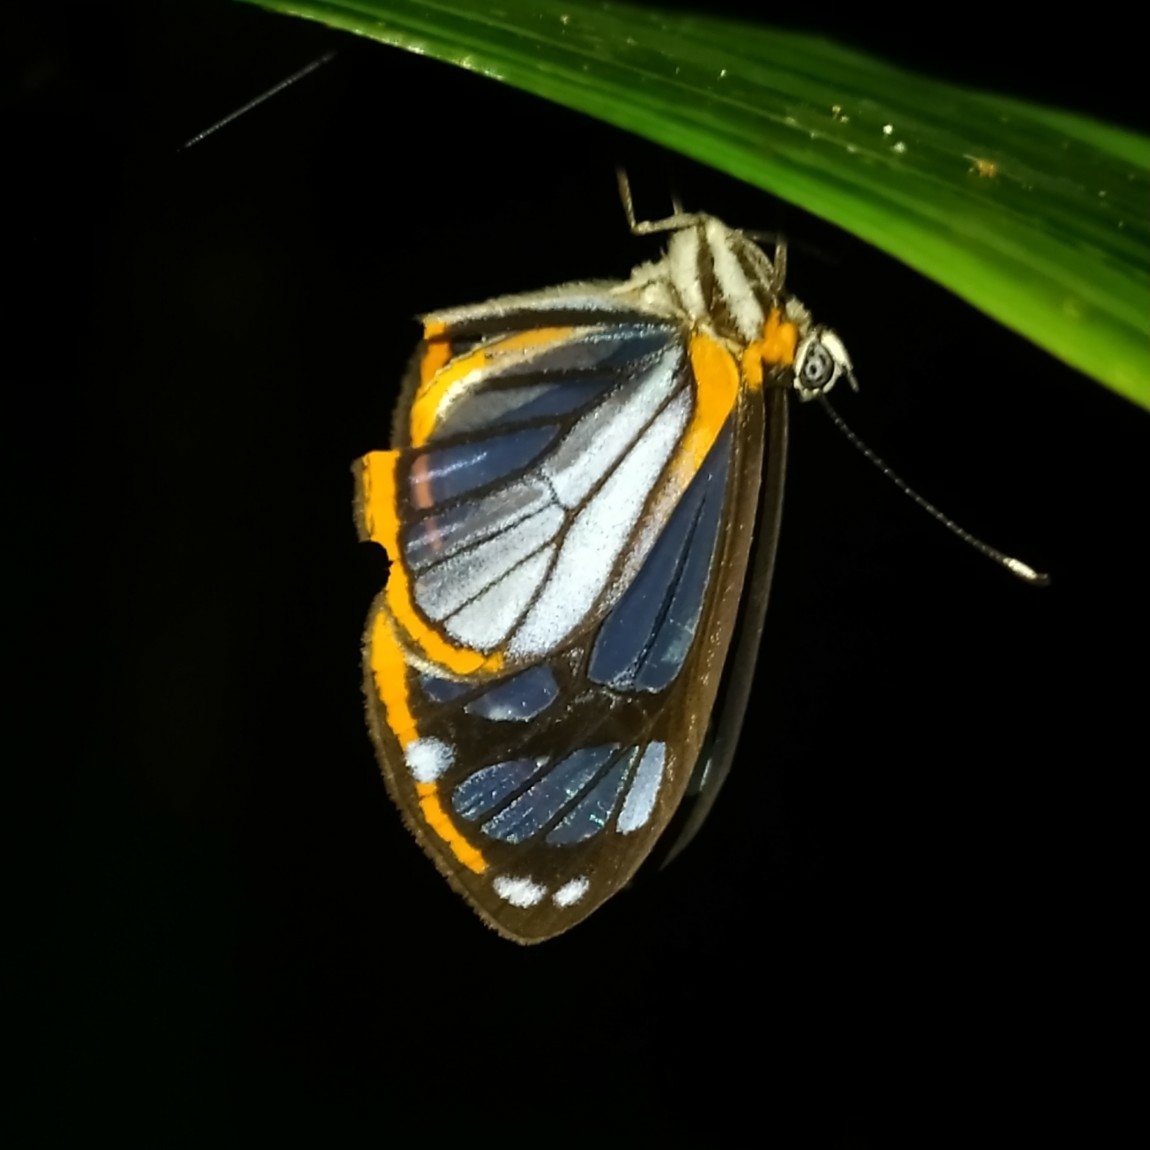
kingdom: Animalia
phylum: Arthropoda
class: Insecta
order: Lepidoptera
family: Riodinidae
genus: Stalachtis
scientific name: Stalachtis phaedusa
